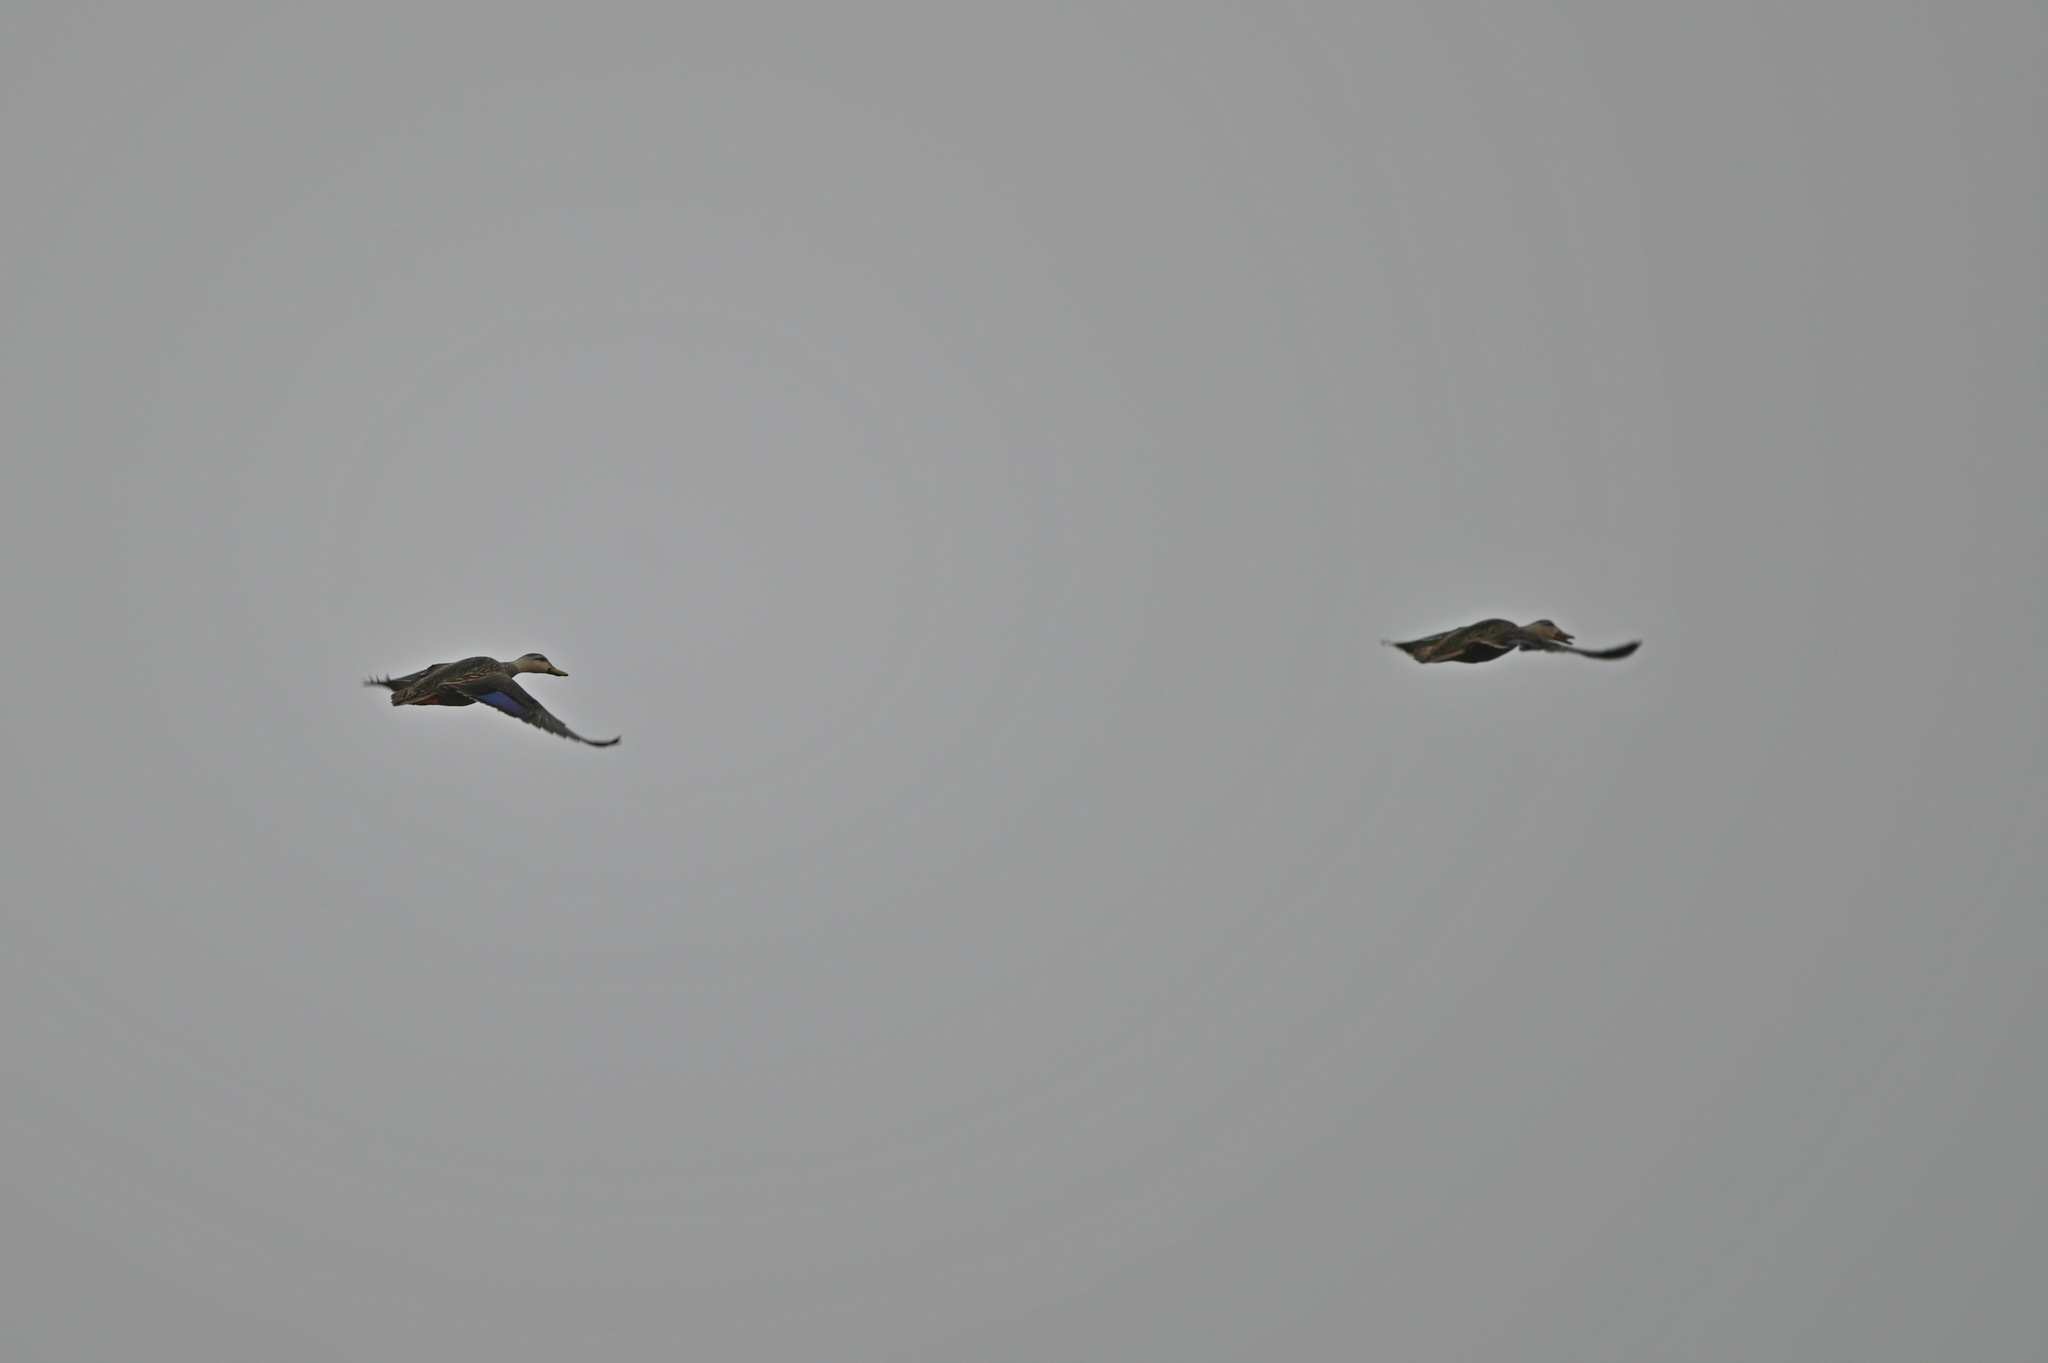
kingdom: Animalia
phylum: Chordata
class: Aves
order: Anseriformes
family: Anatidae
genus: Anas
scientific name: Anas fulvigula
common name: Mottled duck
